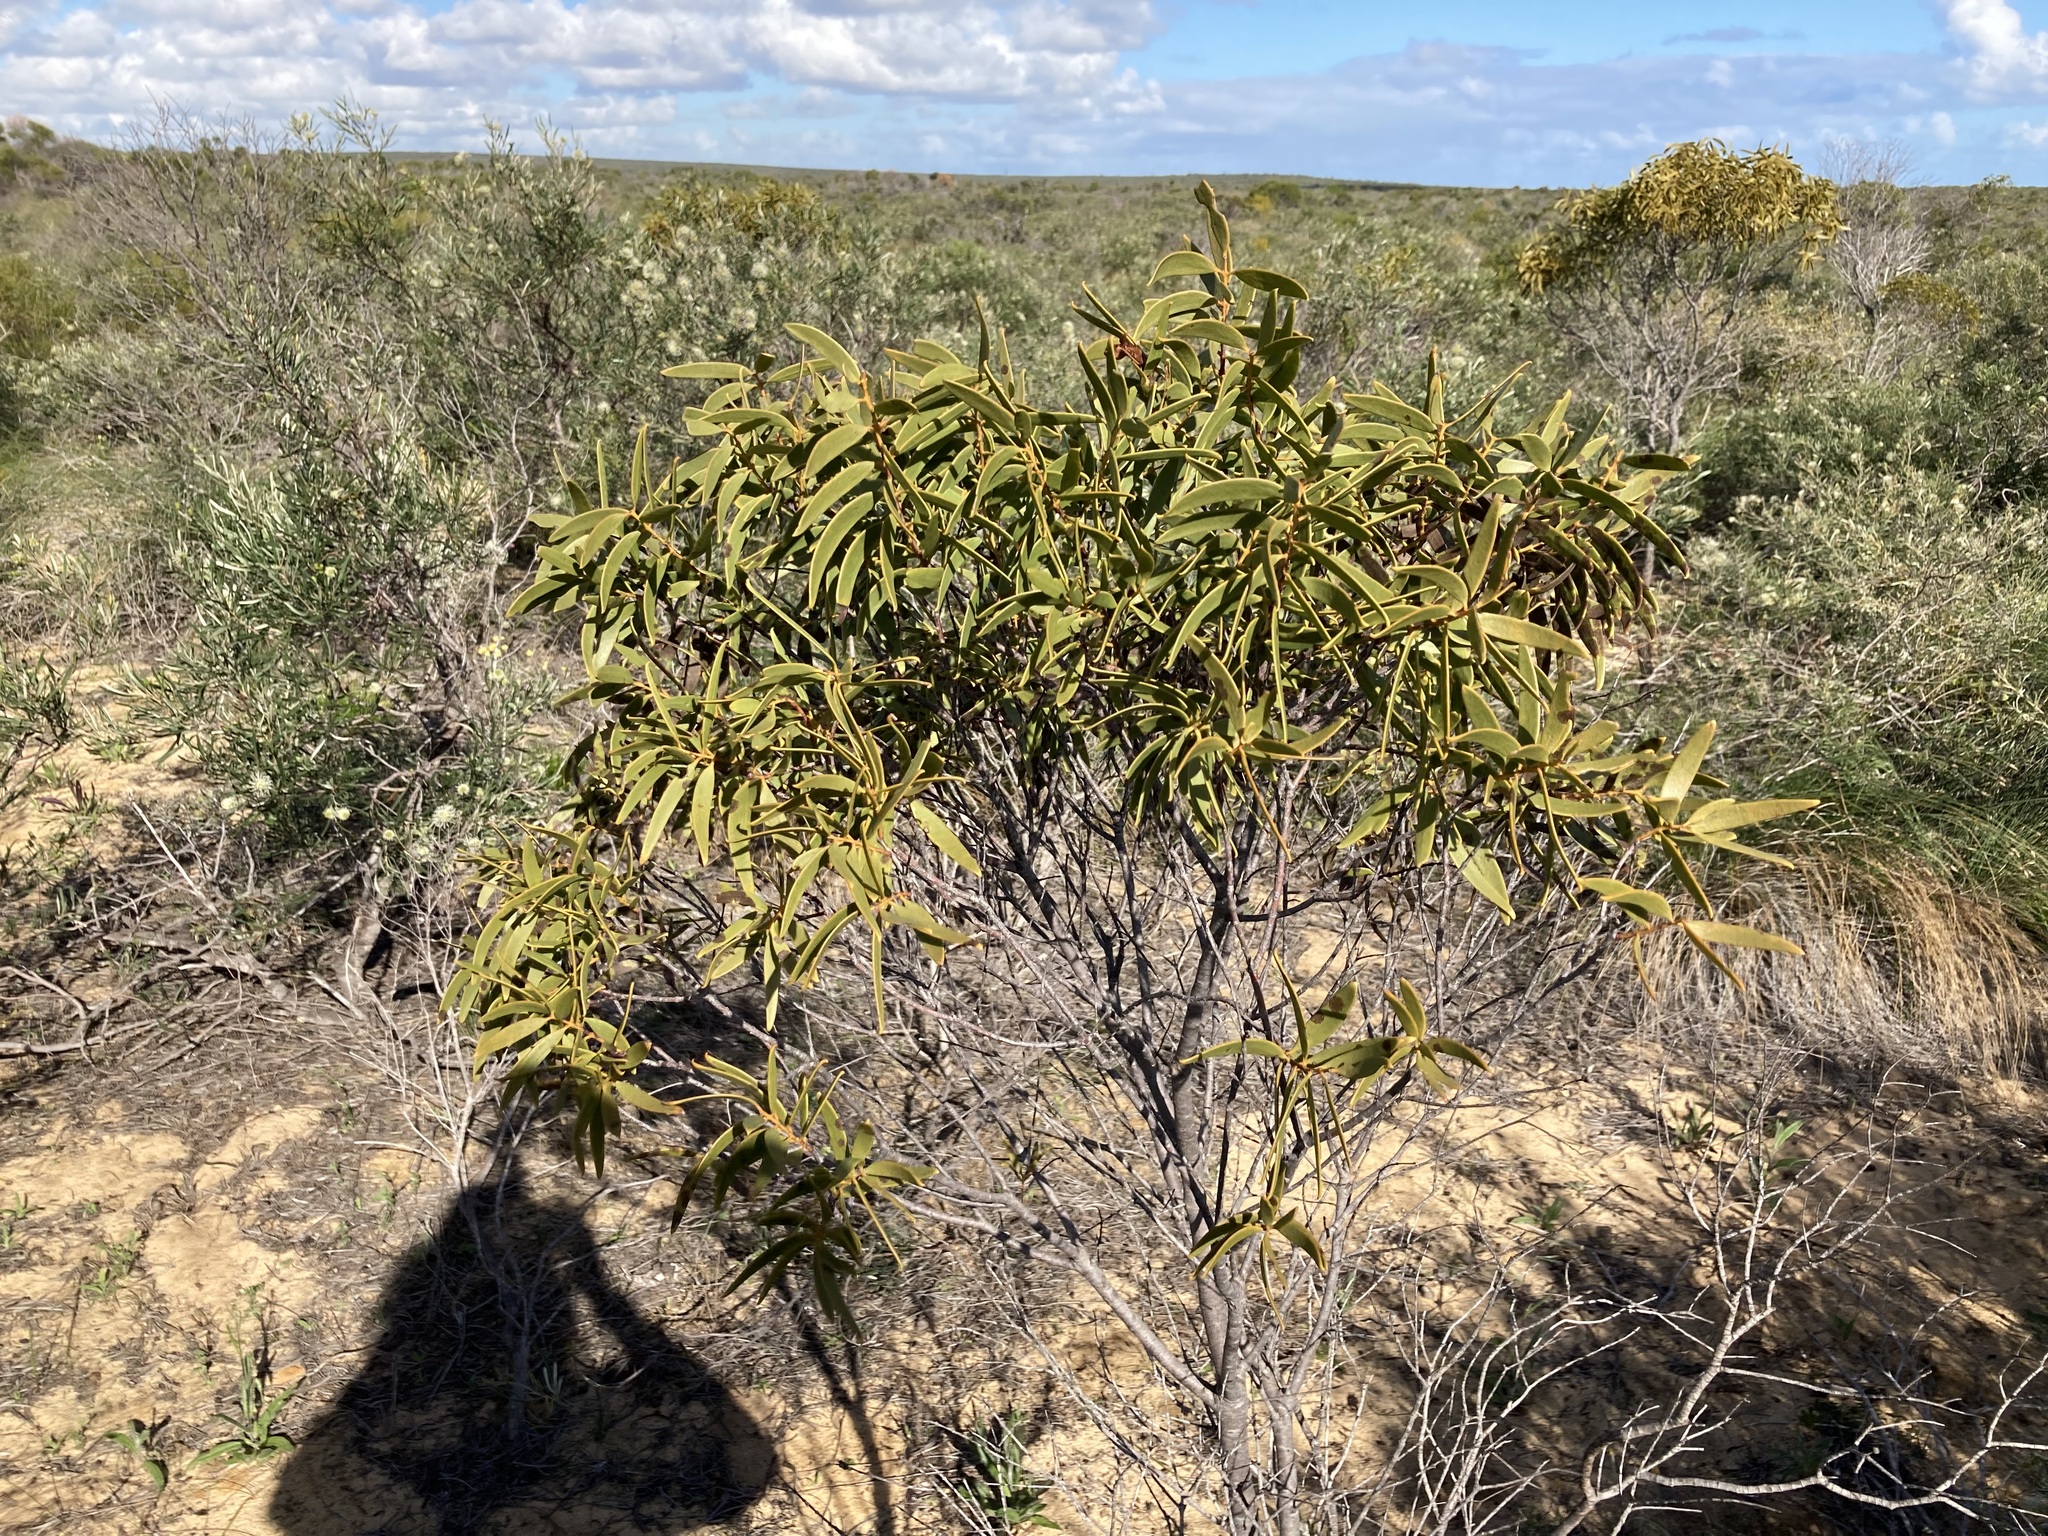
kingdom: Plantae
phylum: Tracheophyta
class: Magnoliopsida
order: Santalales
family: Santalaceae
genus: Santalum
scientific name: Santalum acuminatum
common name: Sweet quandong
